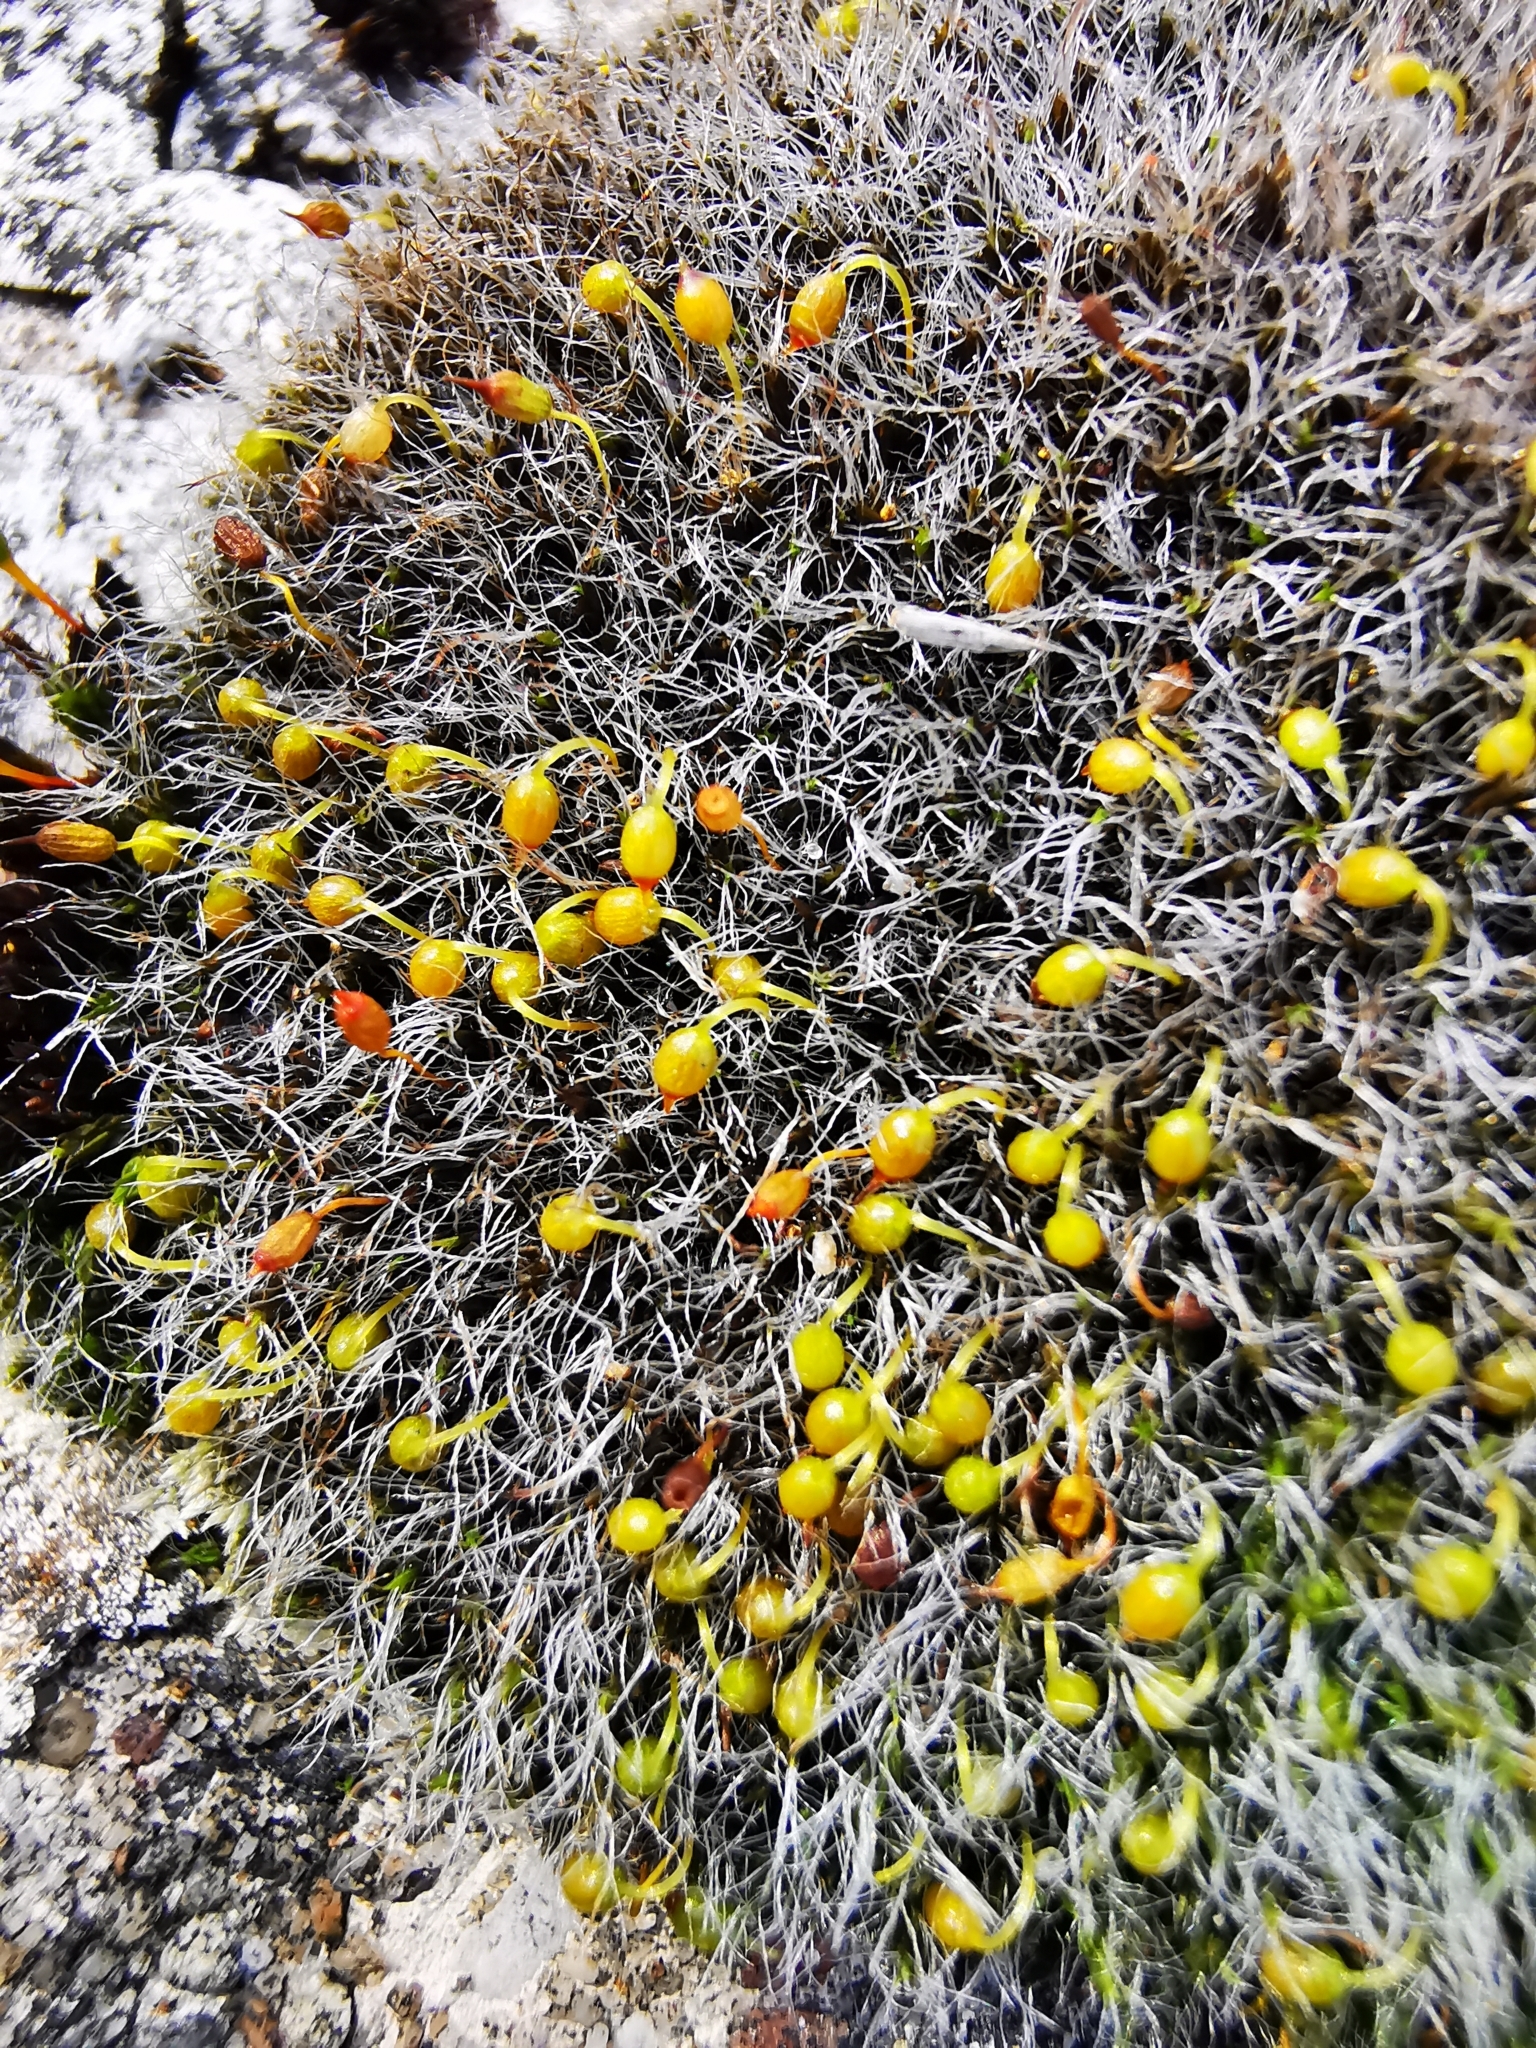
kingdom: Plantae
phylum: Bryophyta
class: Bryopsida
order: Grimmiales
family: Grimmiaceae
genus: Grimmia
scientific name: Grimmia pulvinata
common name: Grey-cushioned grimmia
